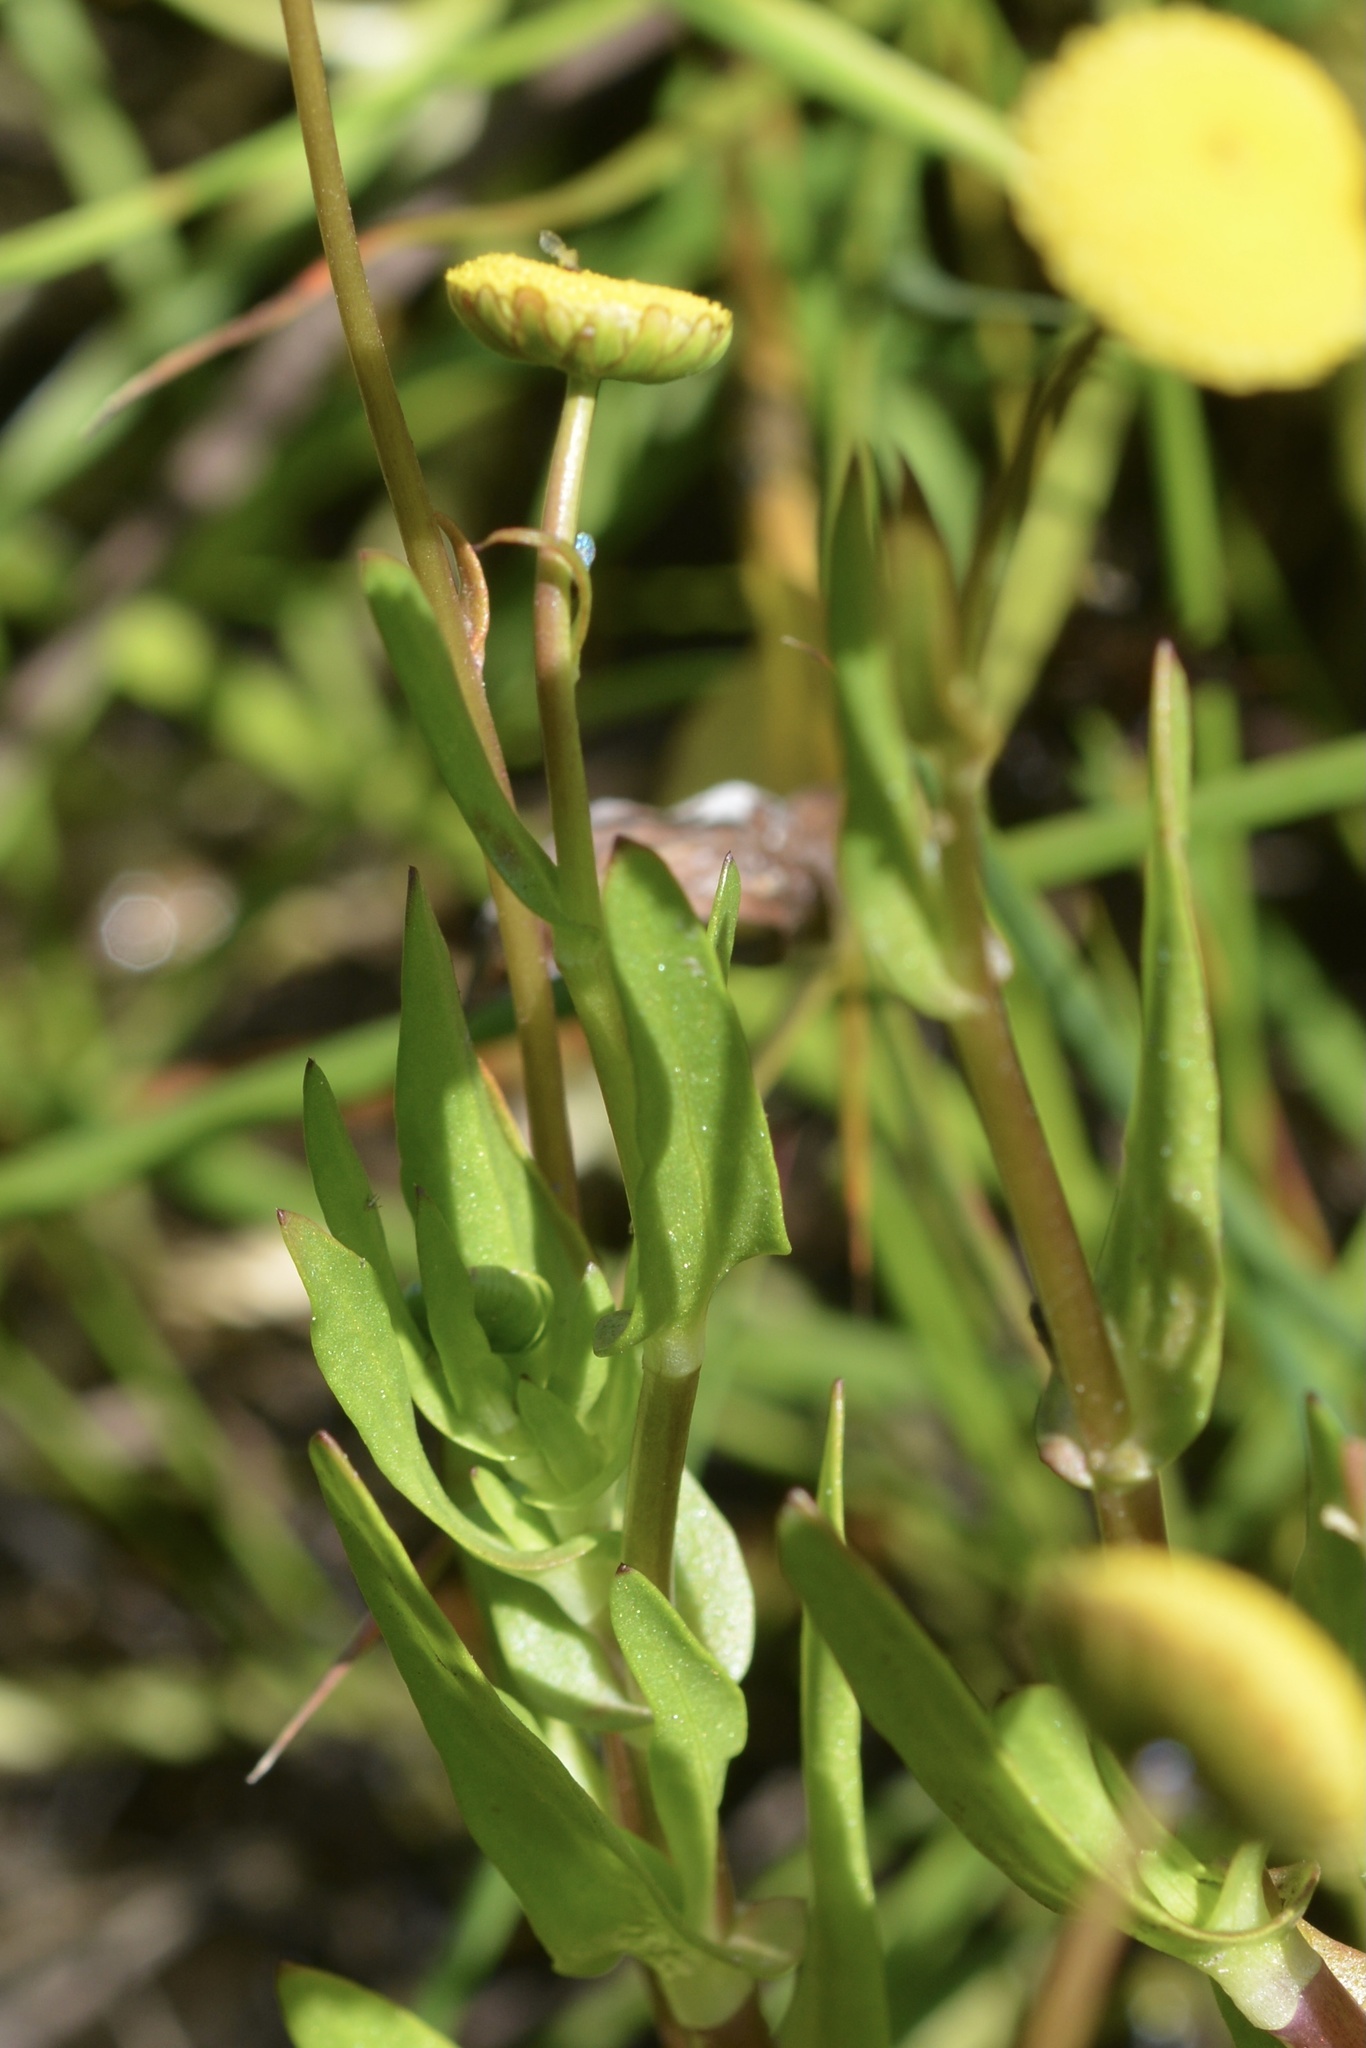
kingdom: Plantae
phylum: Tracheophyta
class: Magnoliopsida
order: Asterales
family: Asteraceae
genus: Cotula
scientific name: Cotula coronopifolia
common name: Buttonweed
